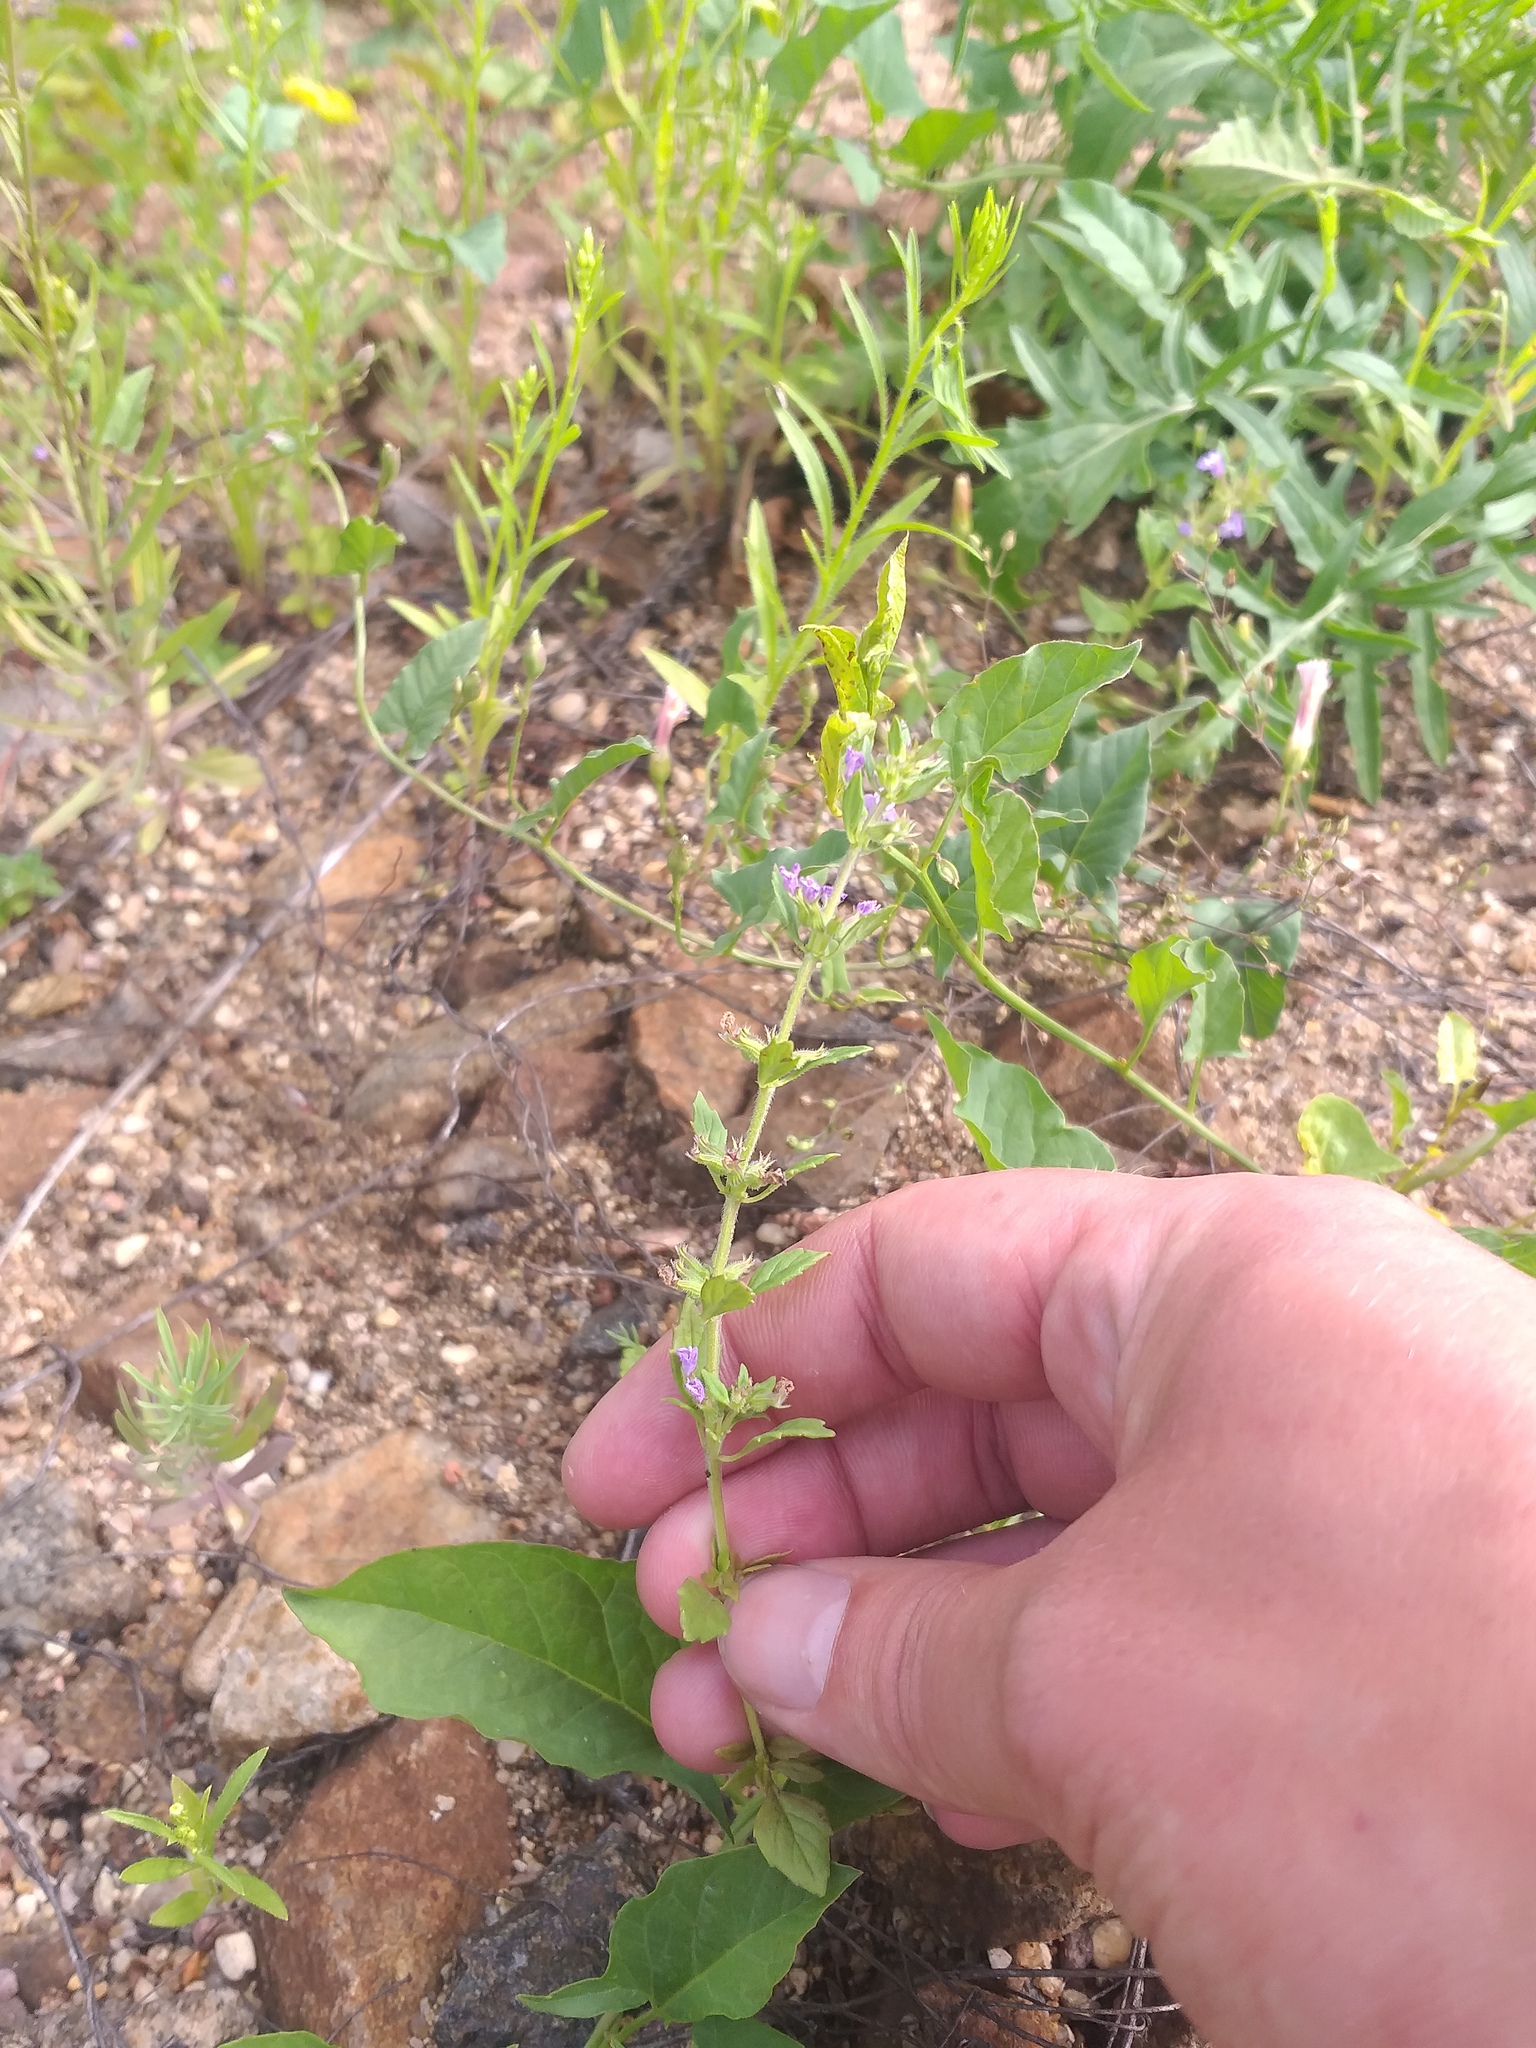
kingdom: Plantae
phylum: Tracheophyta
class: Magnoliopsida
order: Lamiales
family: Lamiaceae
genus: Clinopodium
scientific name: Clinopodium acinos
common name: Basil thyme
